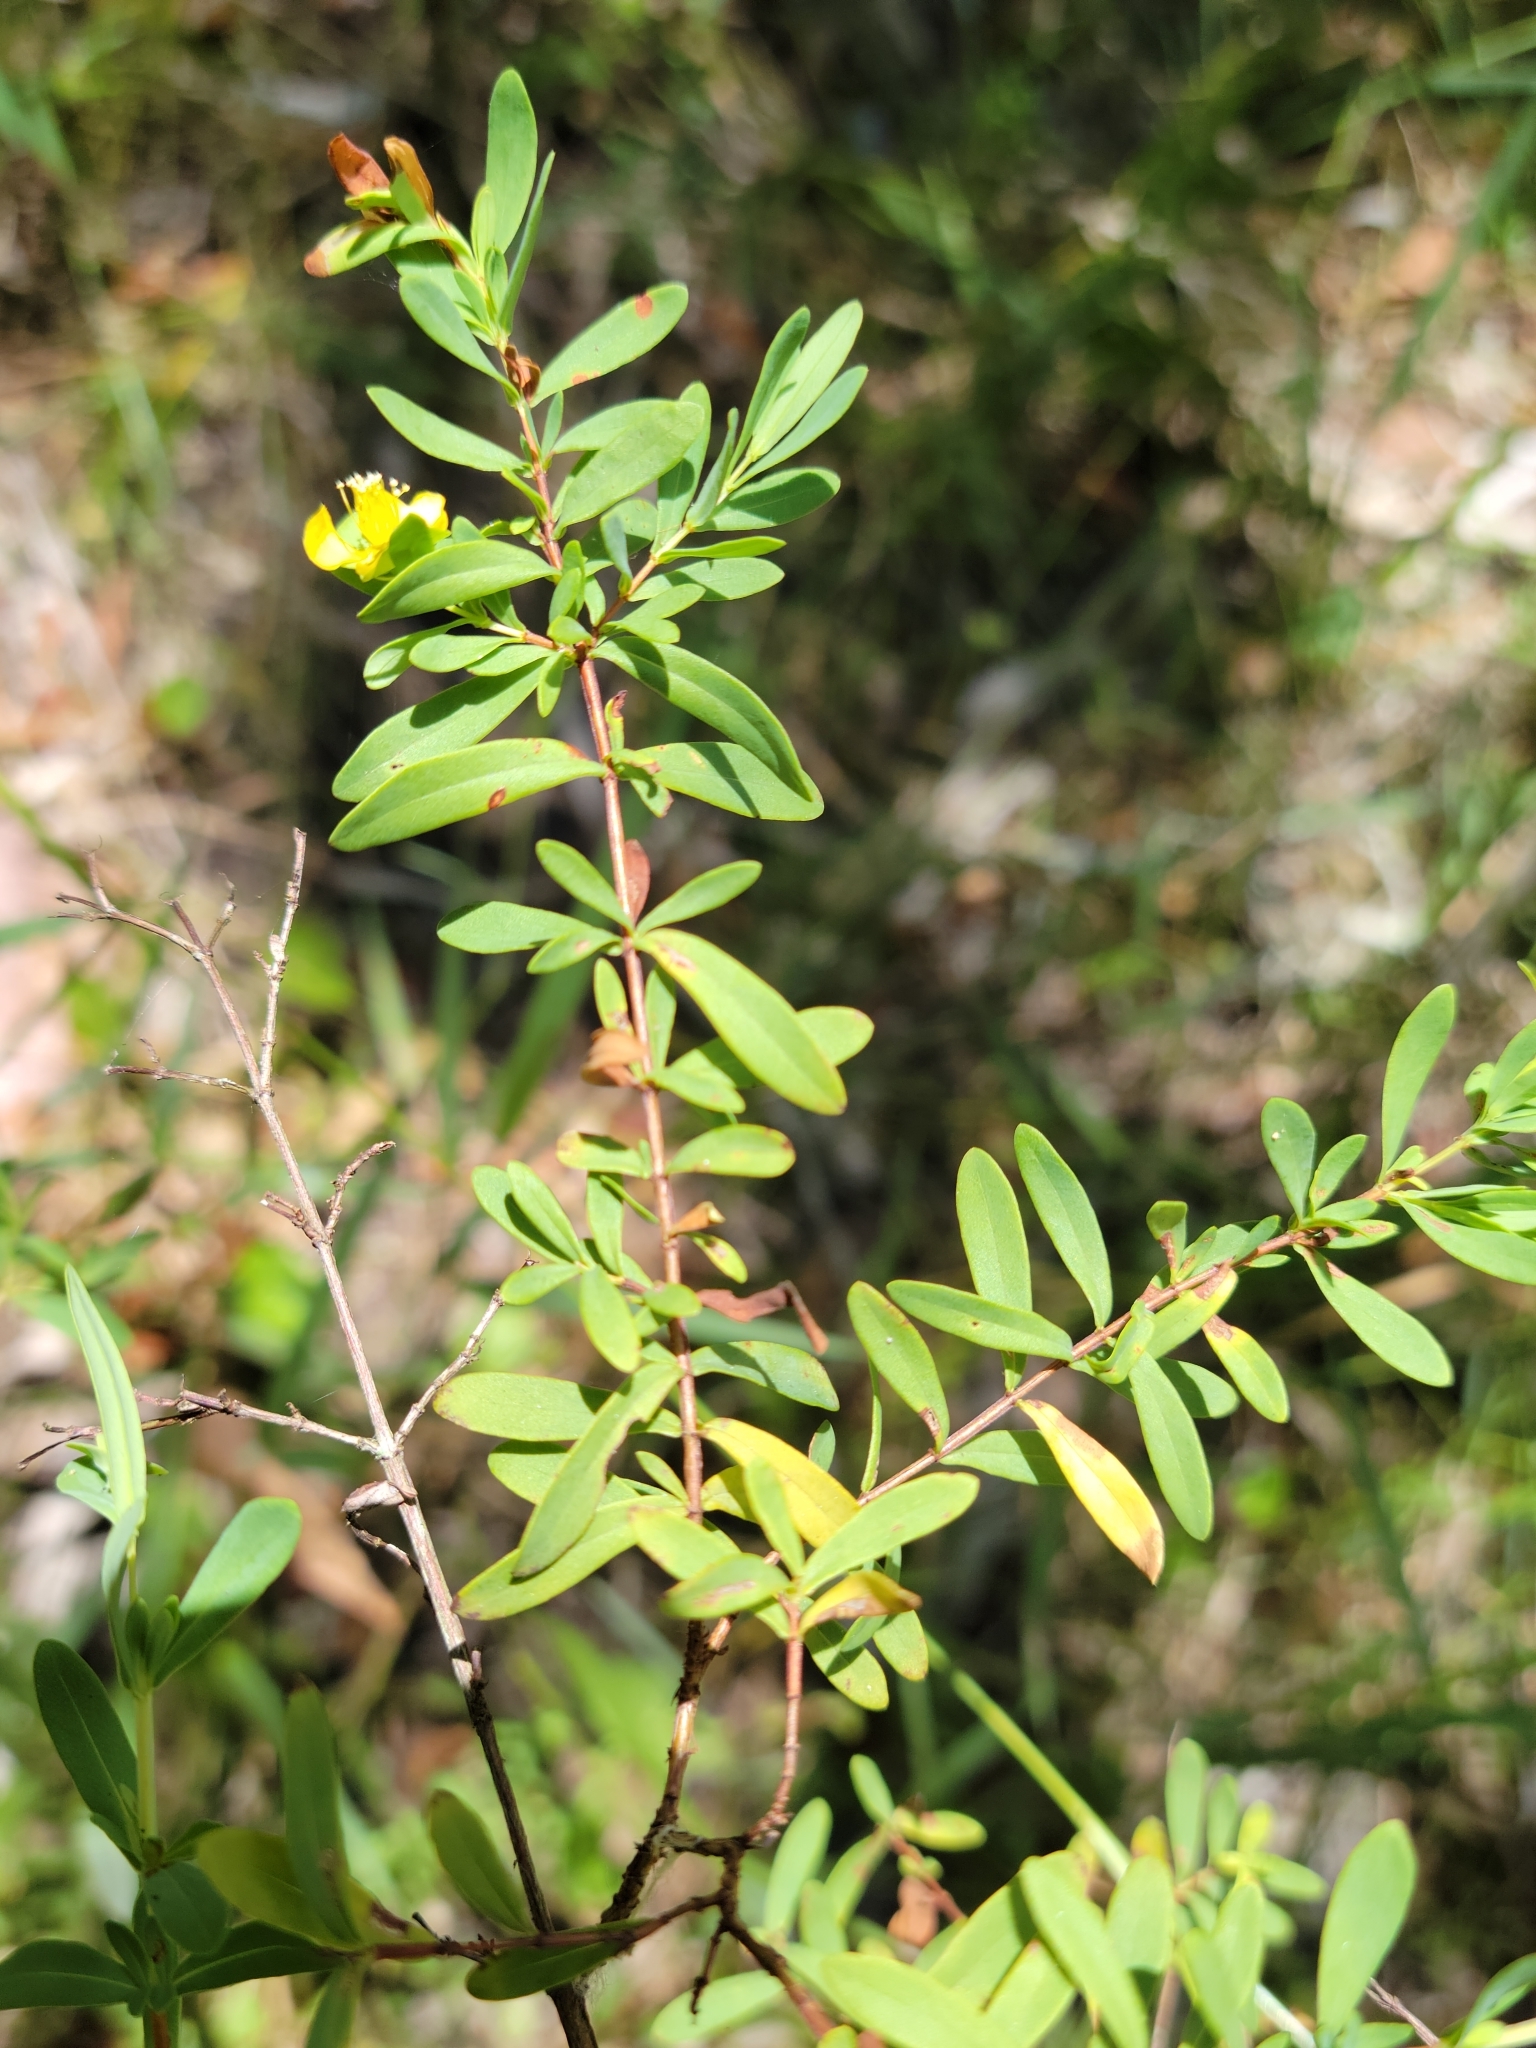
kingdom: Plantae
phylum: Tracheophyta
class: Magnoliopsida
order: Malpighiales
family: Hypericaceae
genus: Hypericum
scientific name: Hypericum hypericoides
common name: St. andrew's cross
